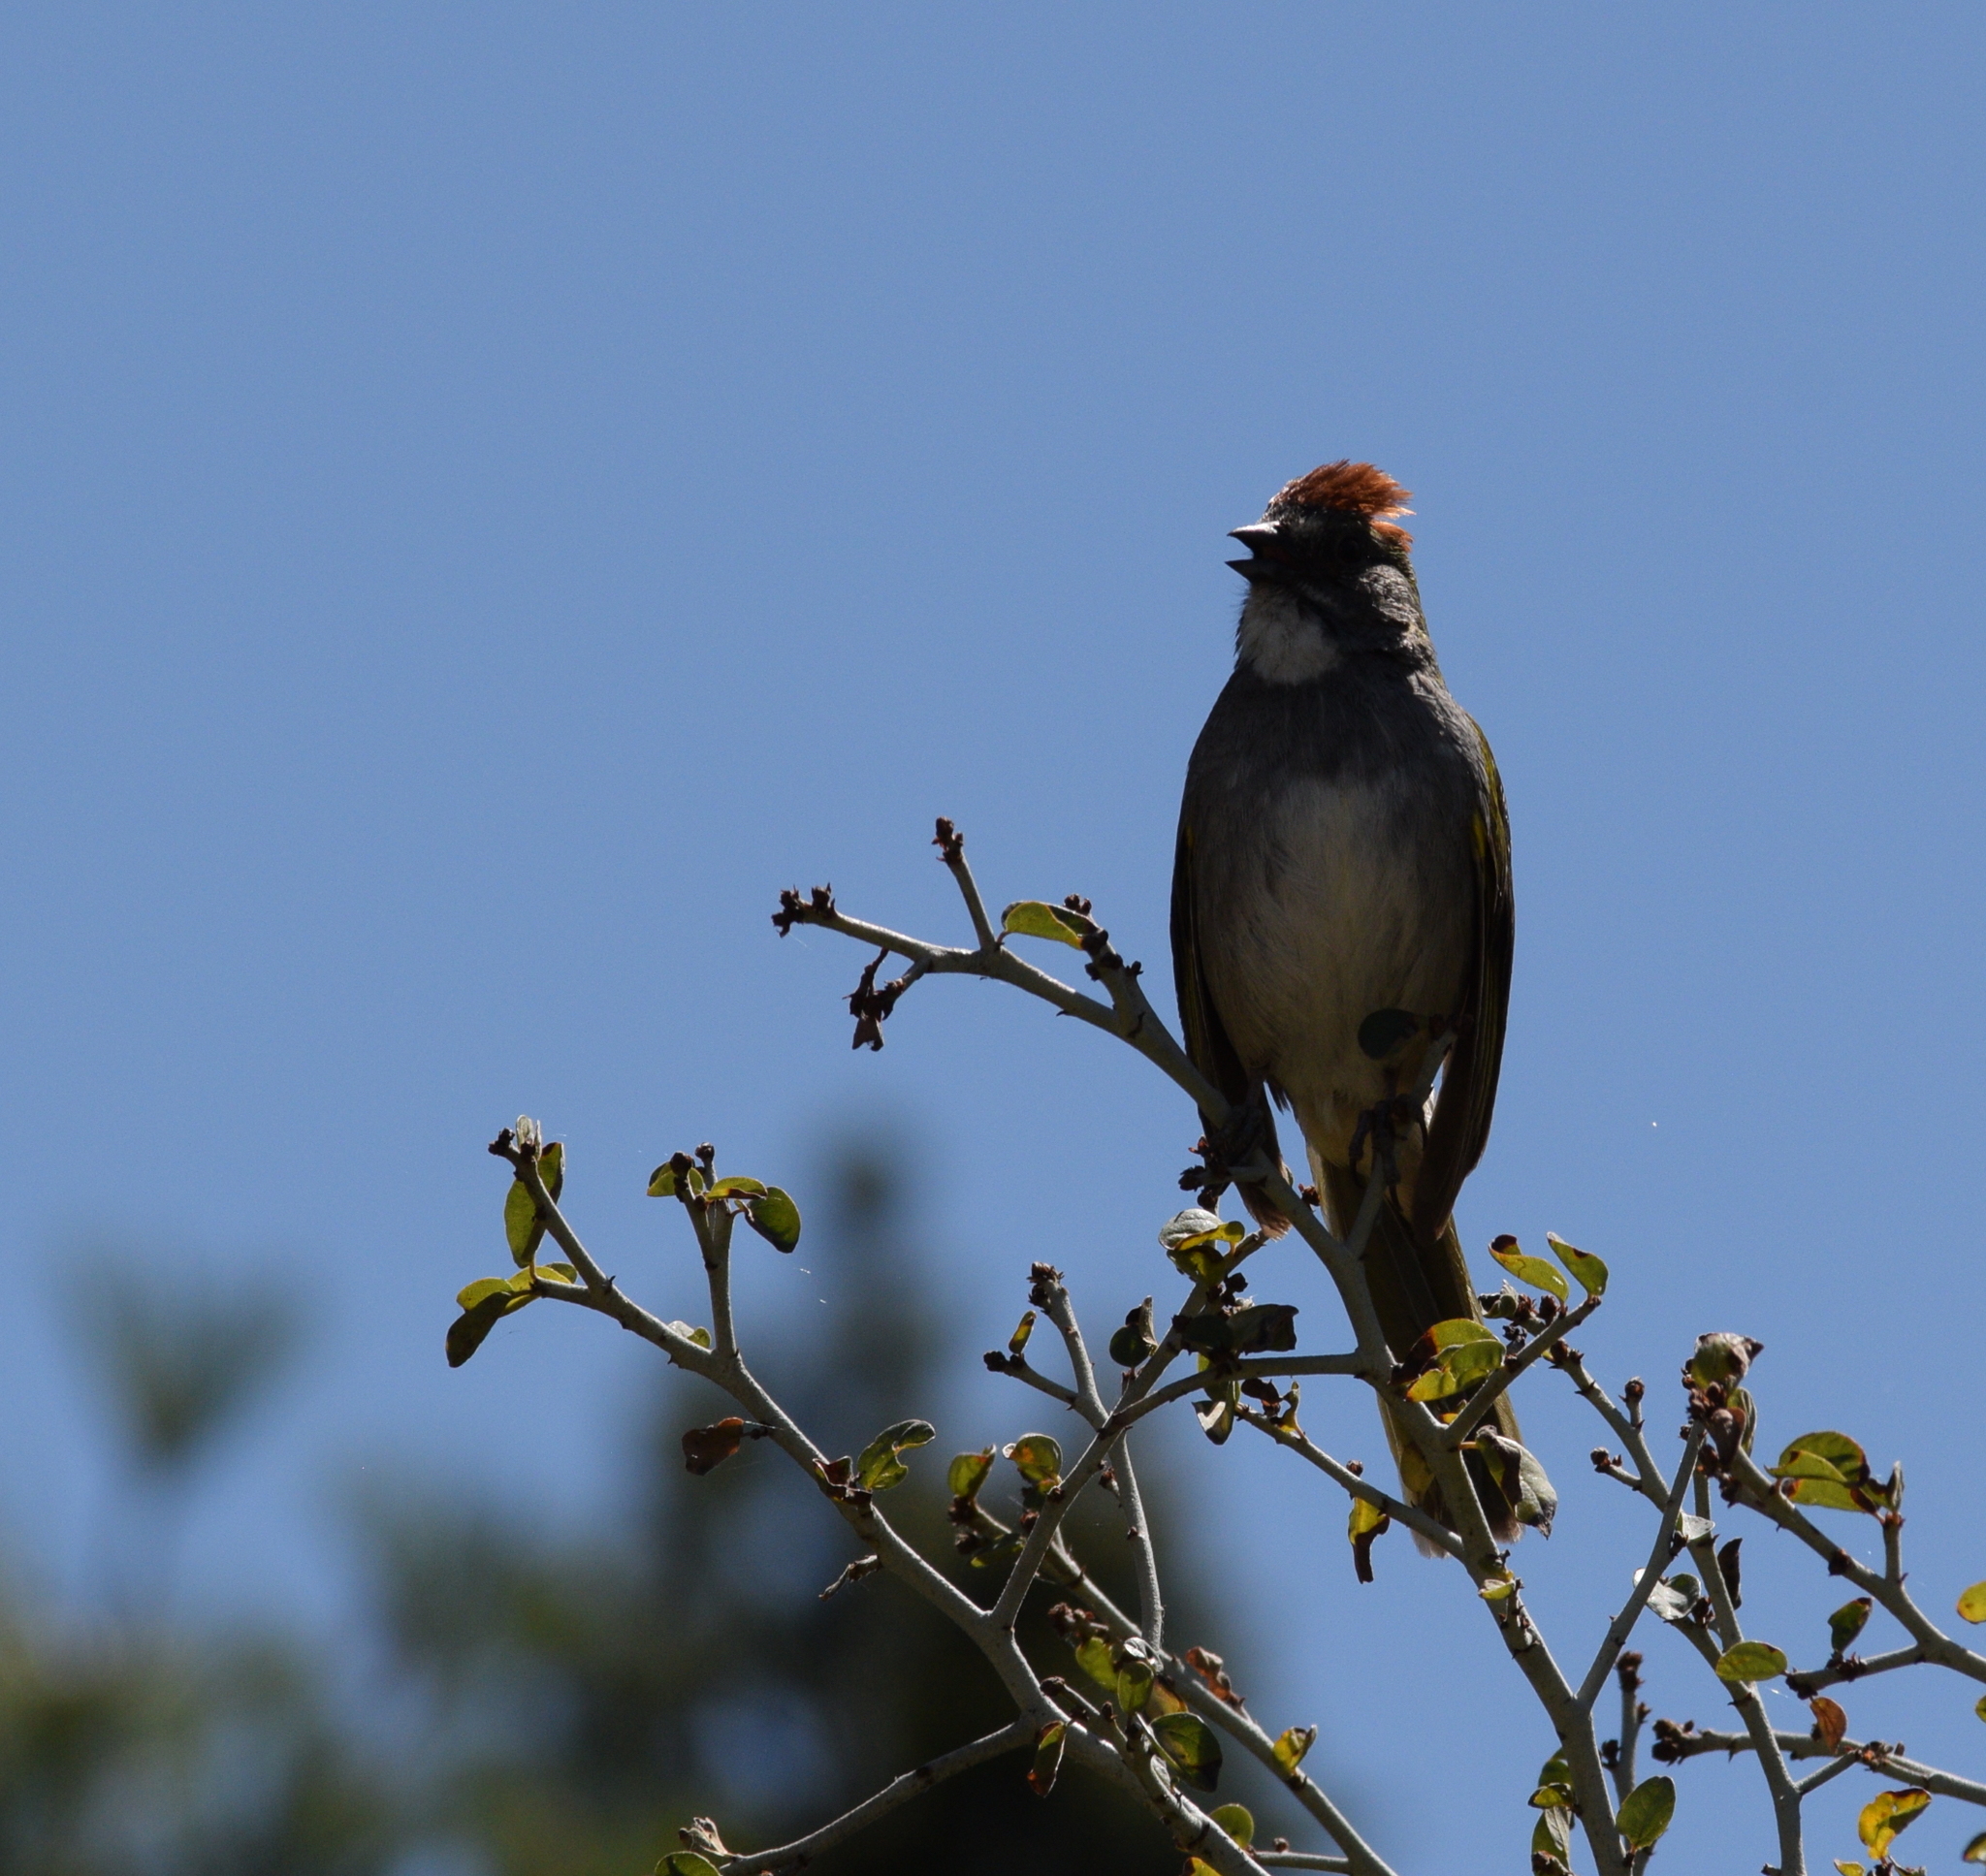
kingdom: Animalia
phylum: Chordata
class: Aves
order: Passeriformes
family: Passerellidae
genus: Pipilo
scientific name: Pipilo chlorurus
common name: Green-tailed towhee
